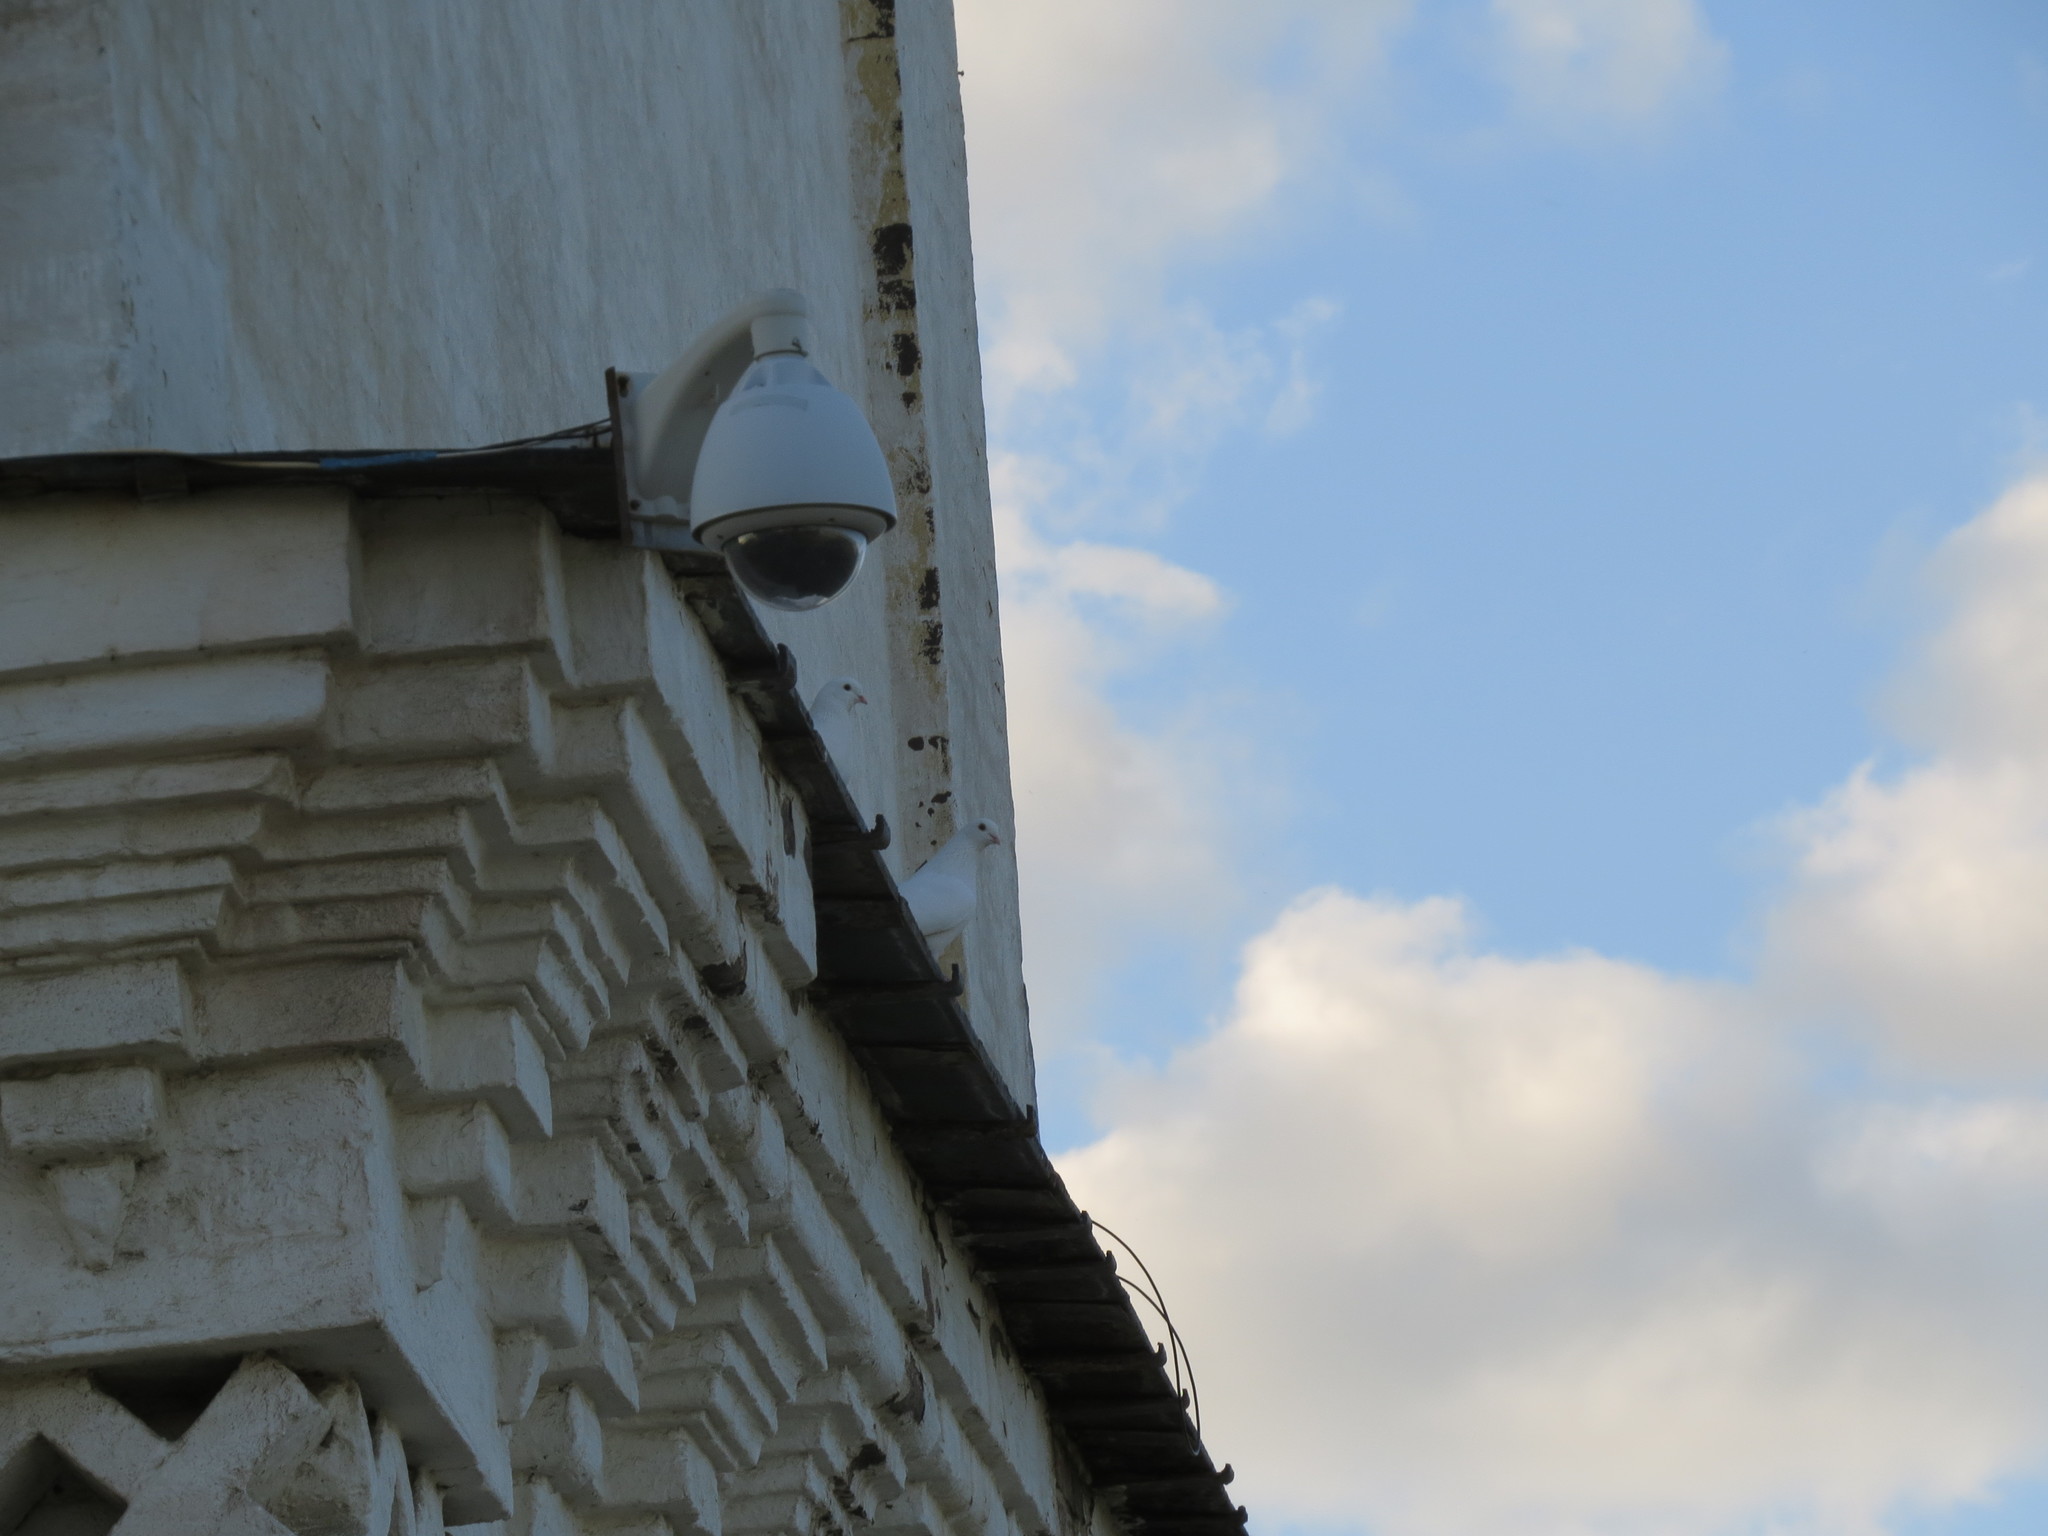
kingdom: Animalia
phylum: Chordata
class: Aves
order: Columbiformes
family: Columbidae
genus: Columba
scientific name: Columba livia
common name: Rock pigeon
